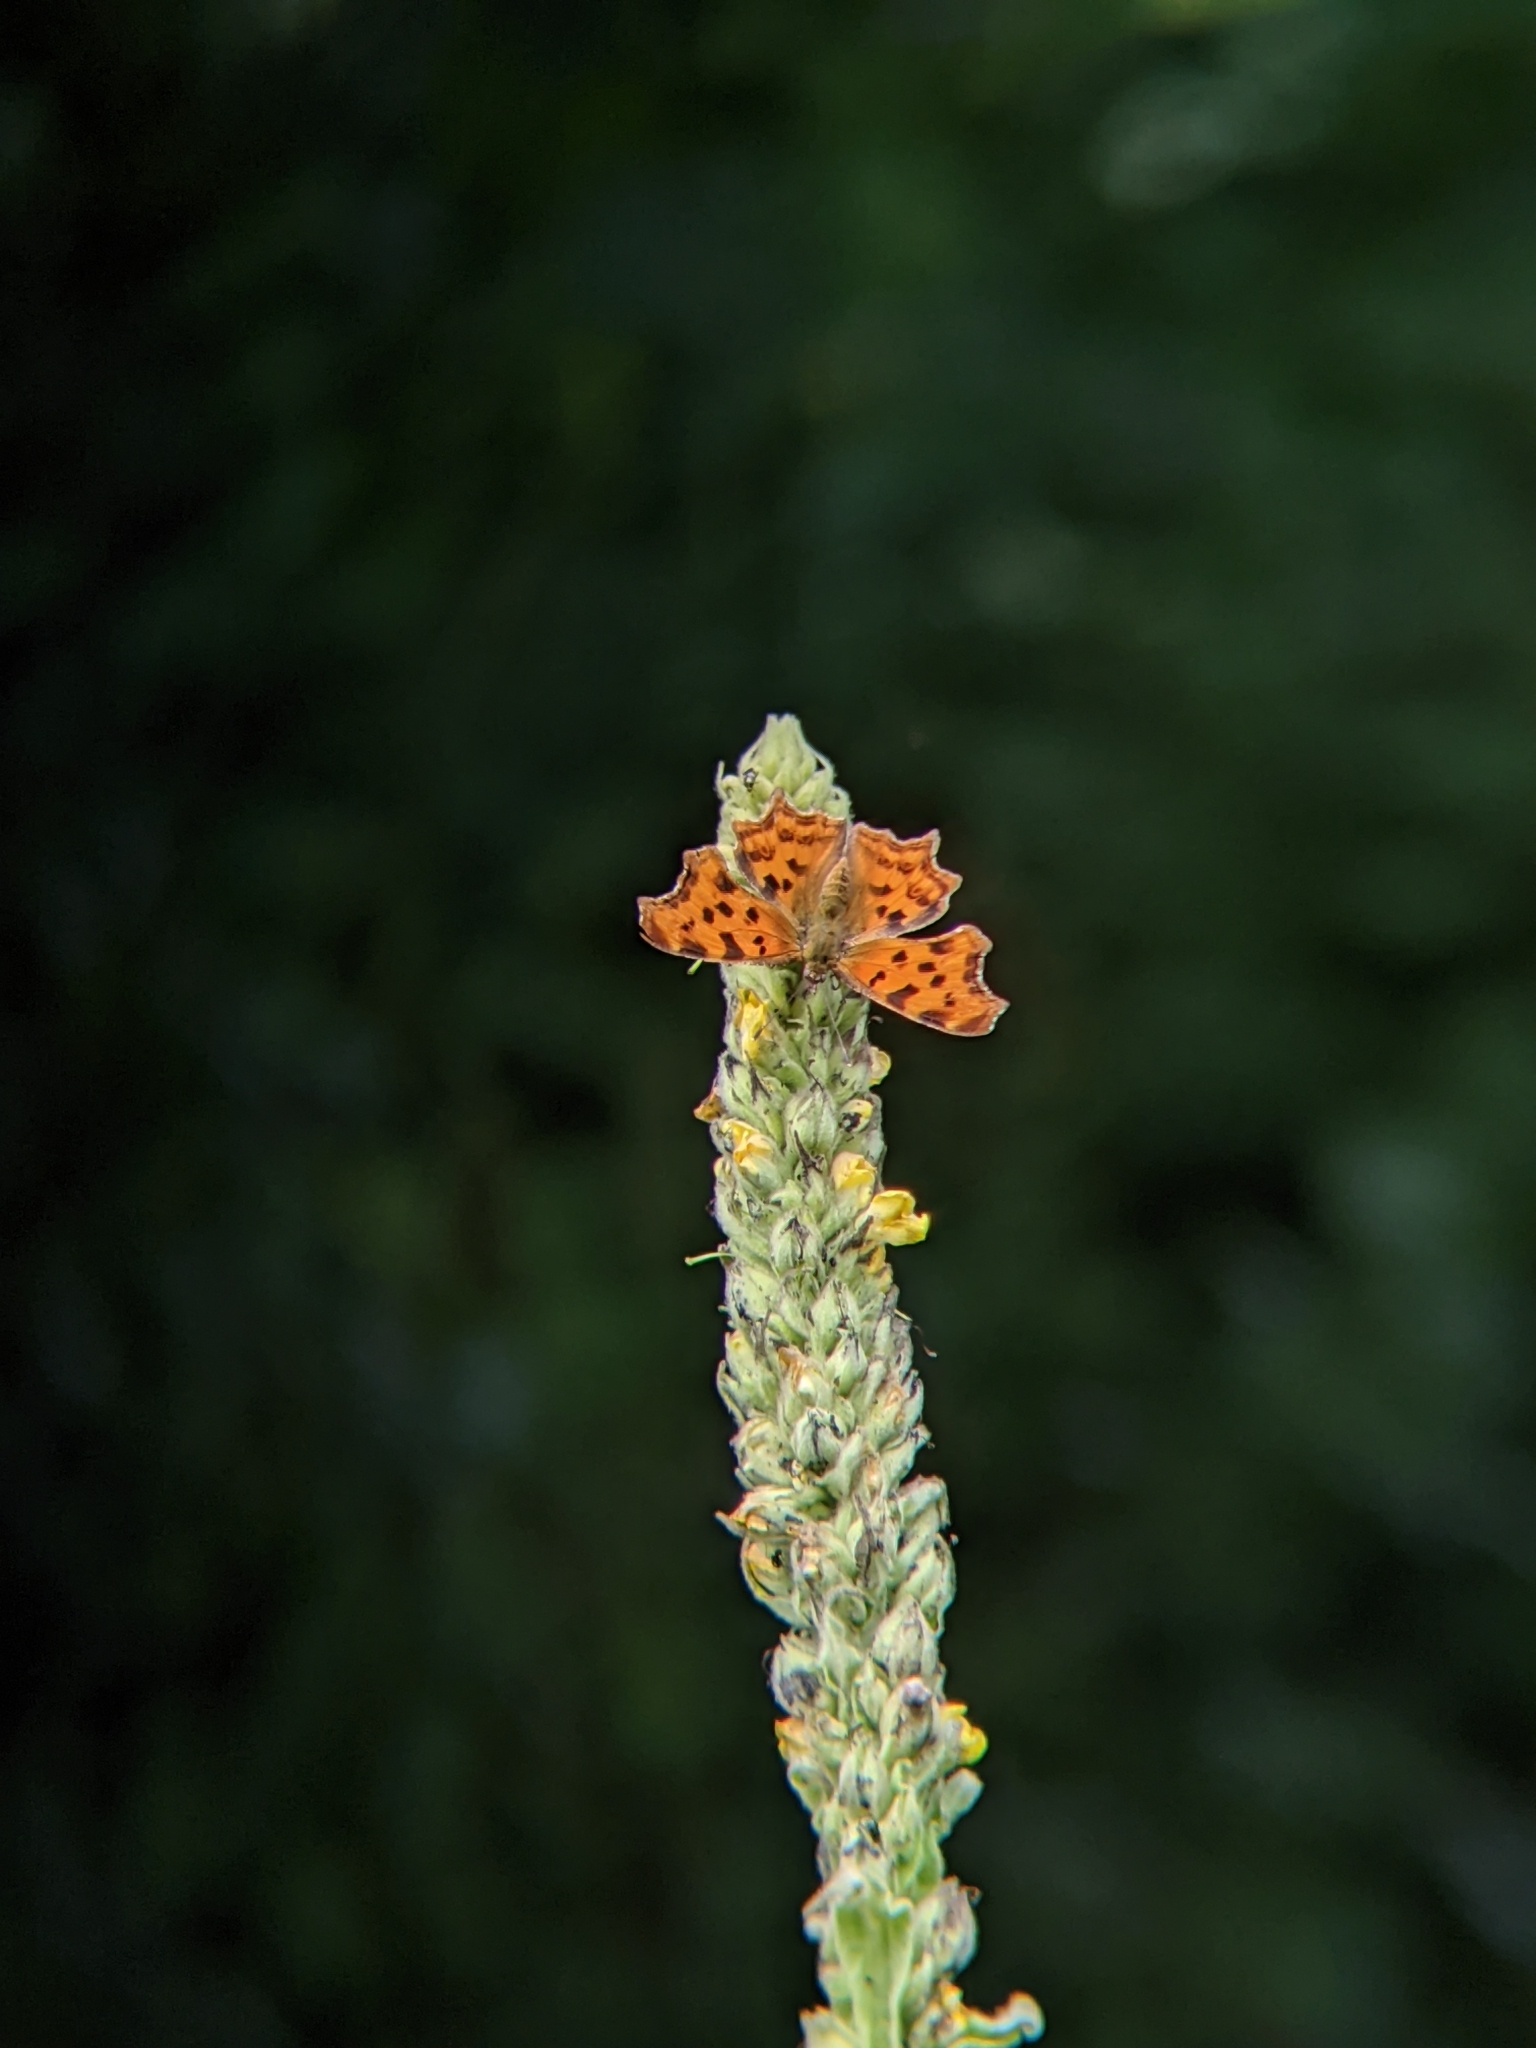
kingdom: Animalia
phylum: Arthropoda
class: Insecta
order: Lepidoptera
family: Nymphalidae
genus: Polygonia
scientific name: Polygonia c-album
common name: Comma
